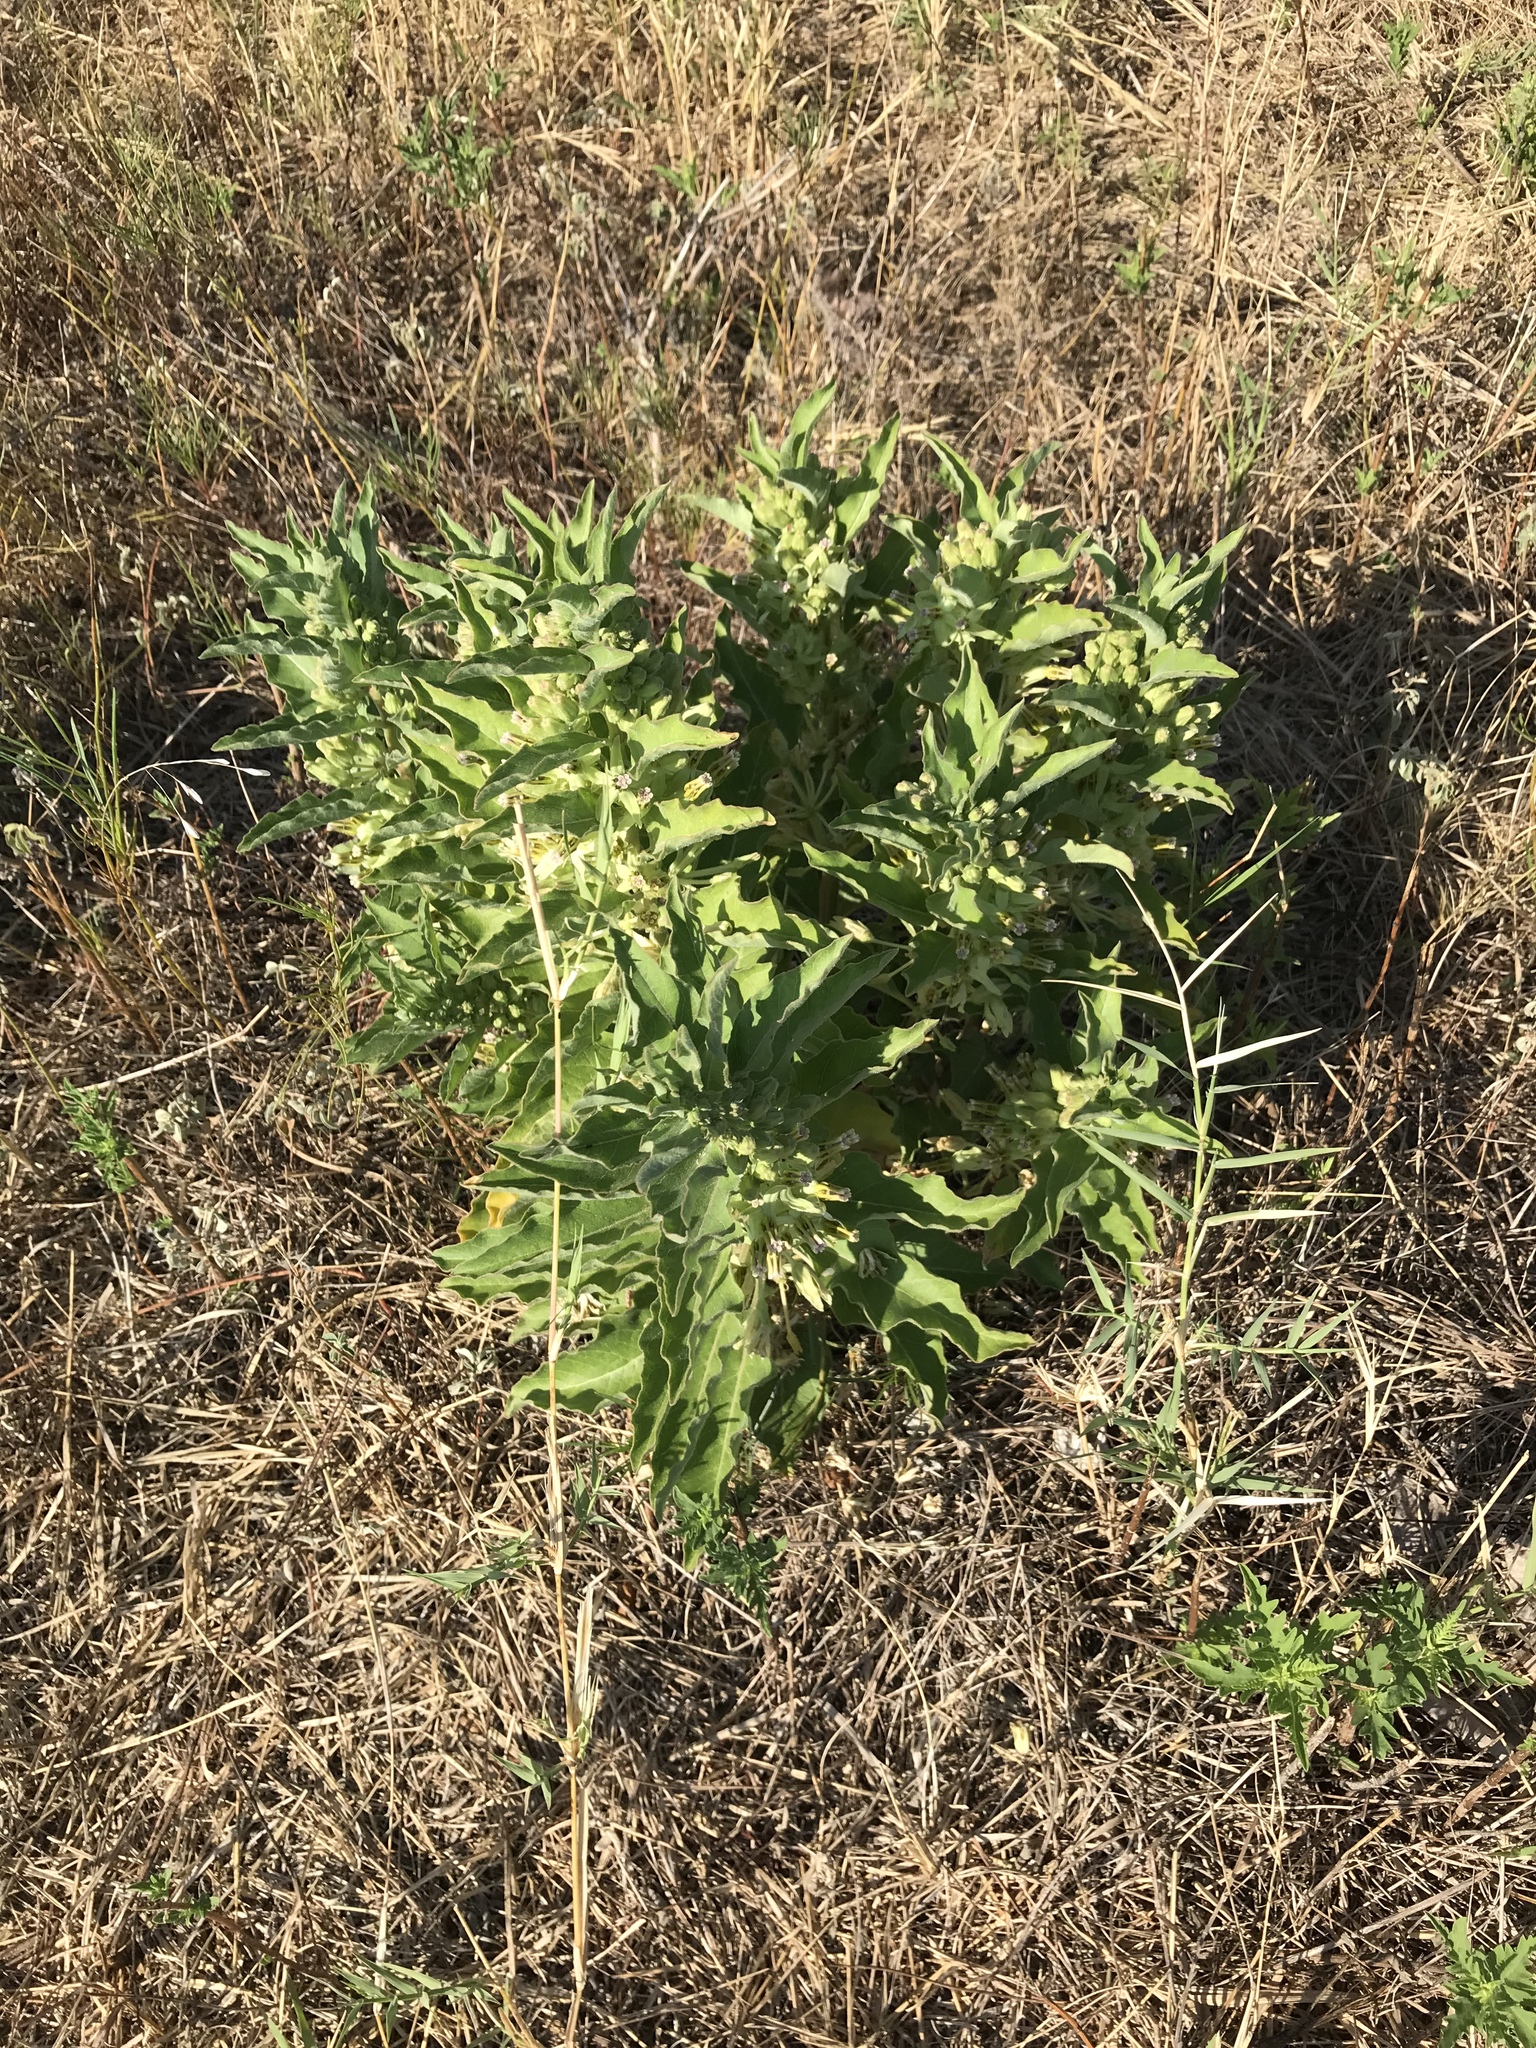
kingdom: Plantae
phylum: Tracheophyta
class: Magnoliopsida
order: Gentianales
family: Apocynaceae
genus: Asclepias
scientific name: Asclepias oenotheroides
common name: Zizotes milkweed
